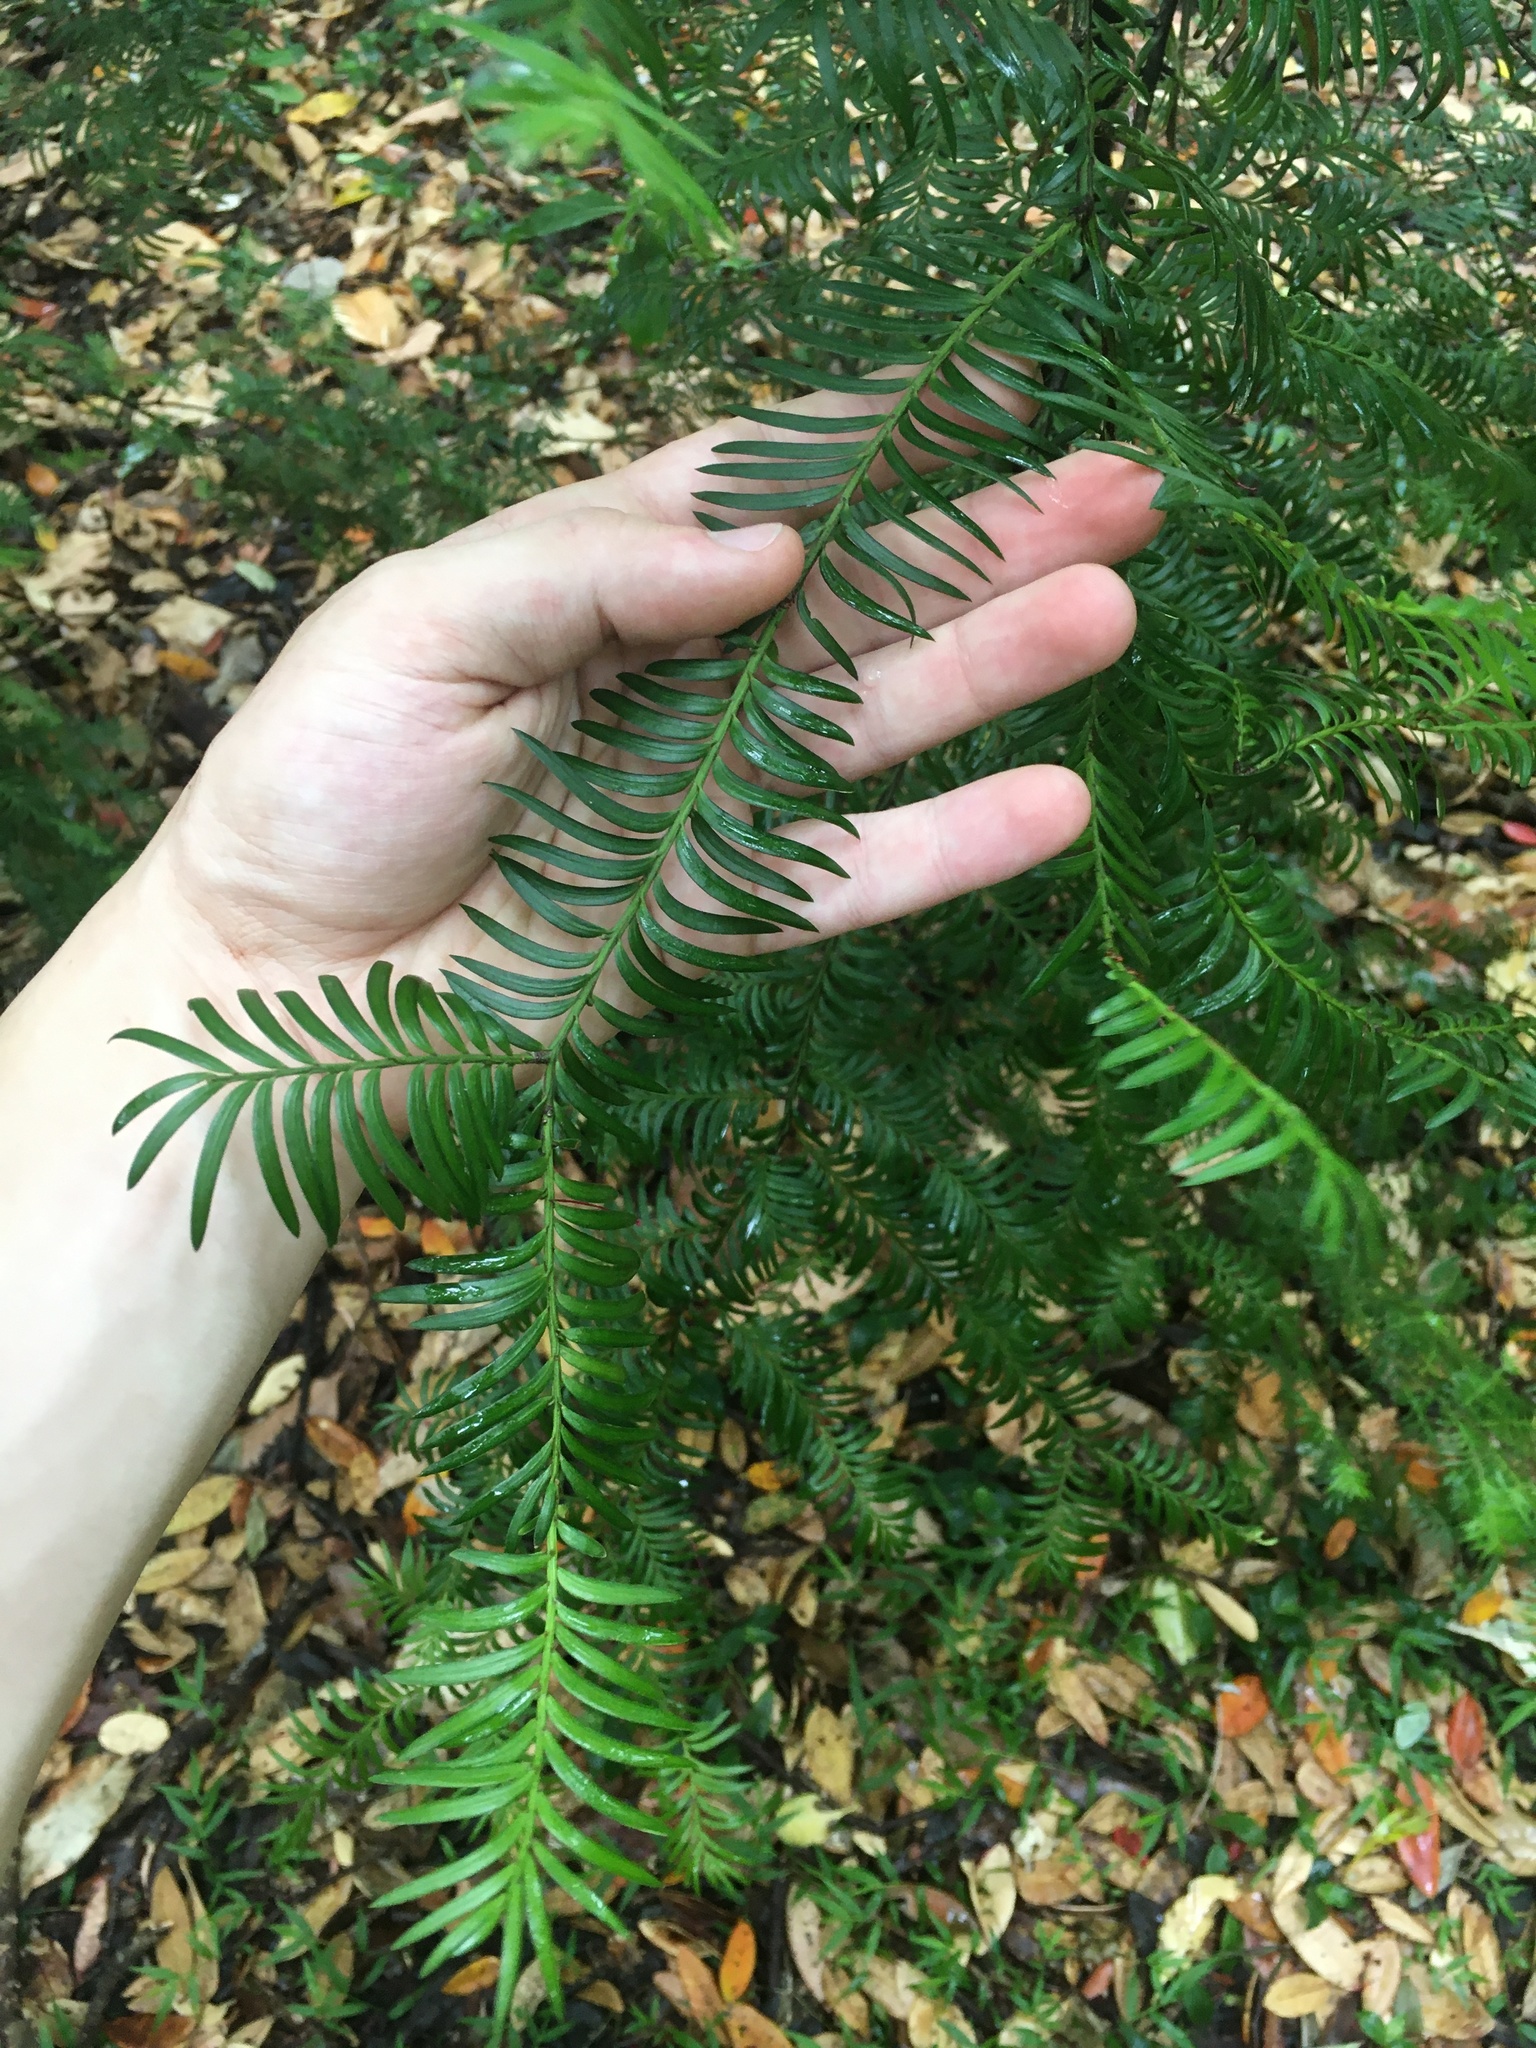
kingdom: Plantae
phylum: Tracheophyta
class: Pinopsida
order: Pinales
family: Podocarpaceae
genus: Prumnopitys
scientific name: Prumnopitys ferruginea
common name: Brown pine
